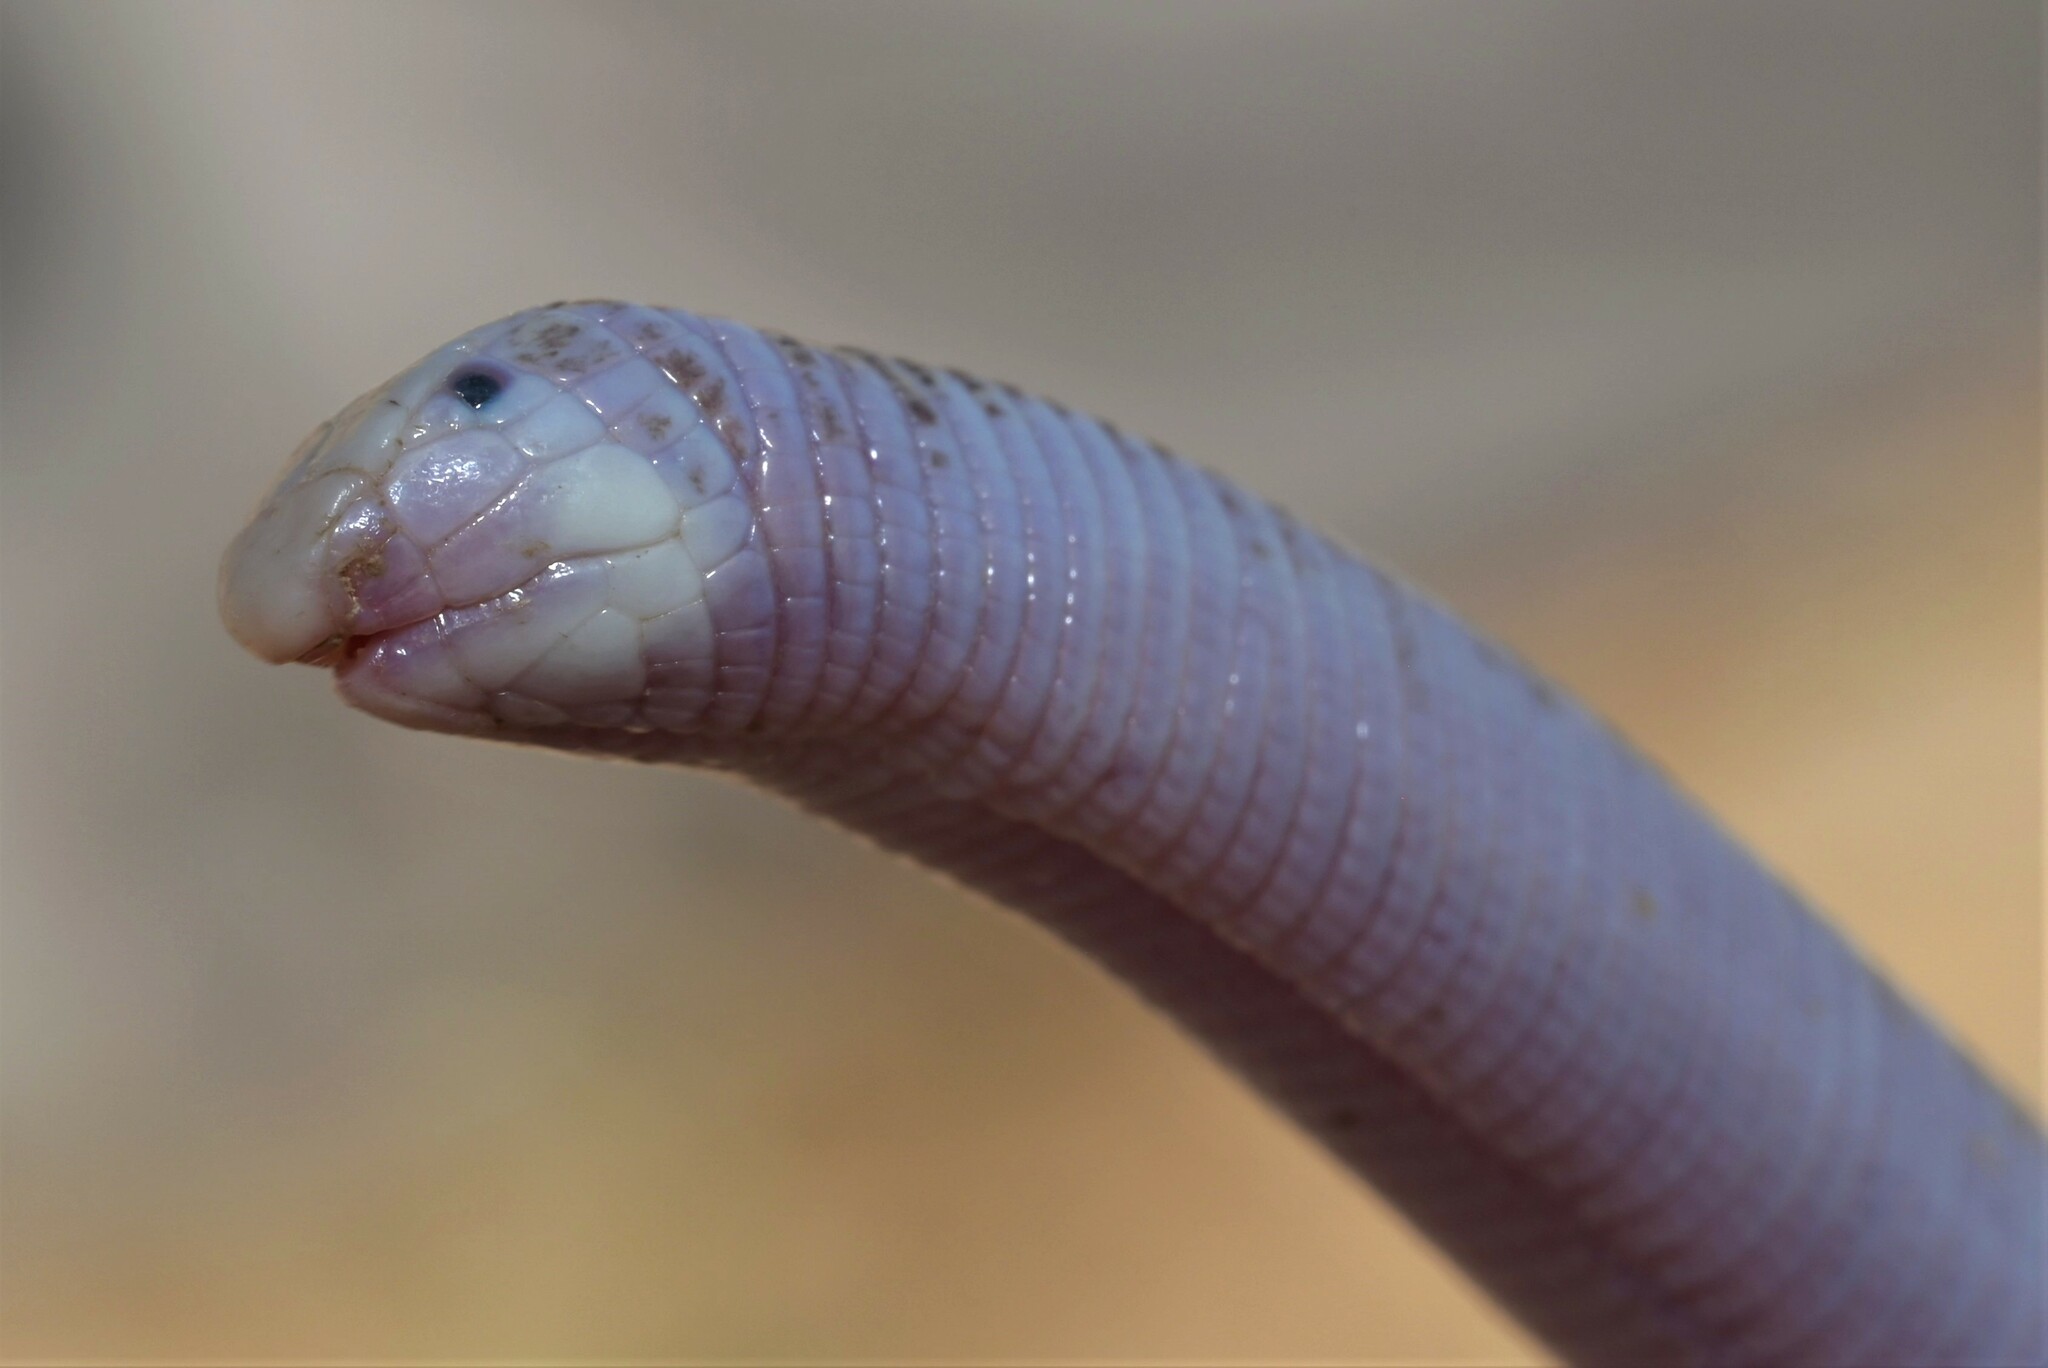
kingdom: Animalia
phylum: Chordata
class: Squamata
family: Trogonophidae
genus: Diplometopon
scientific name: Diplometopon zarudnyi
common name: Zarudnyi's worm lizard
